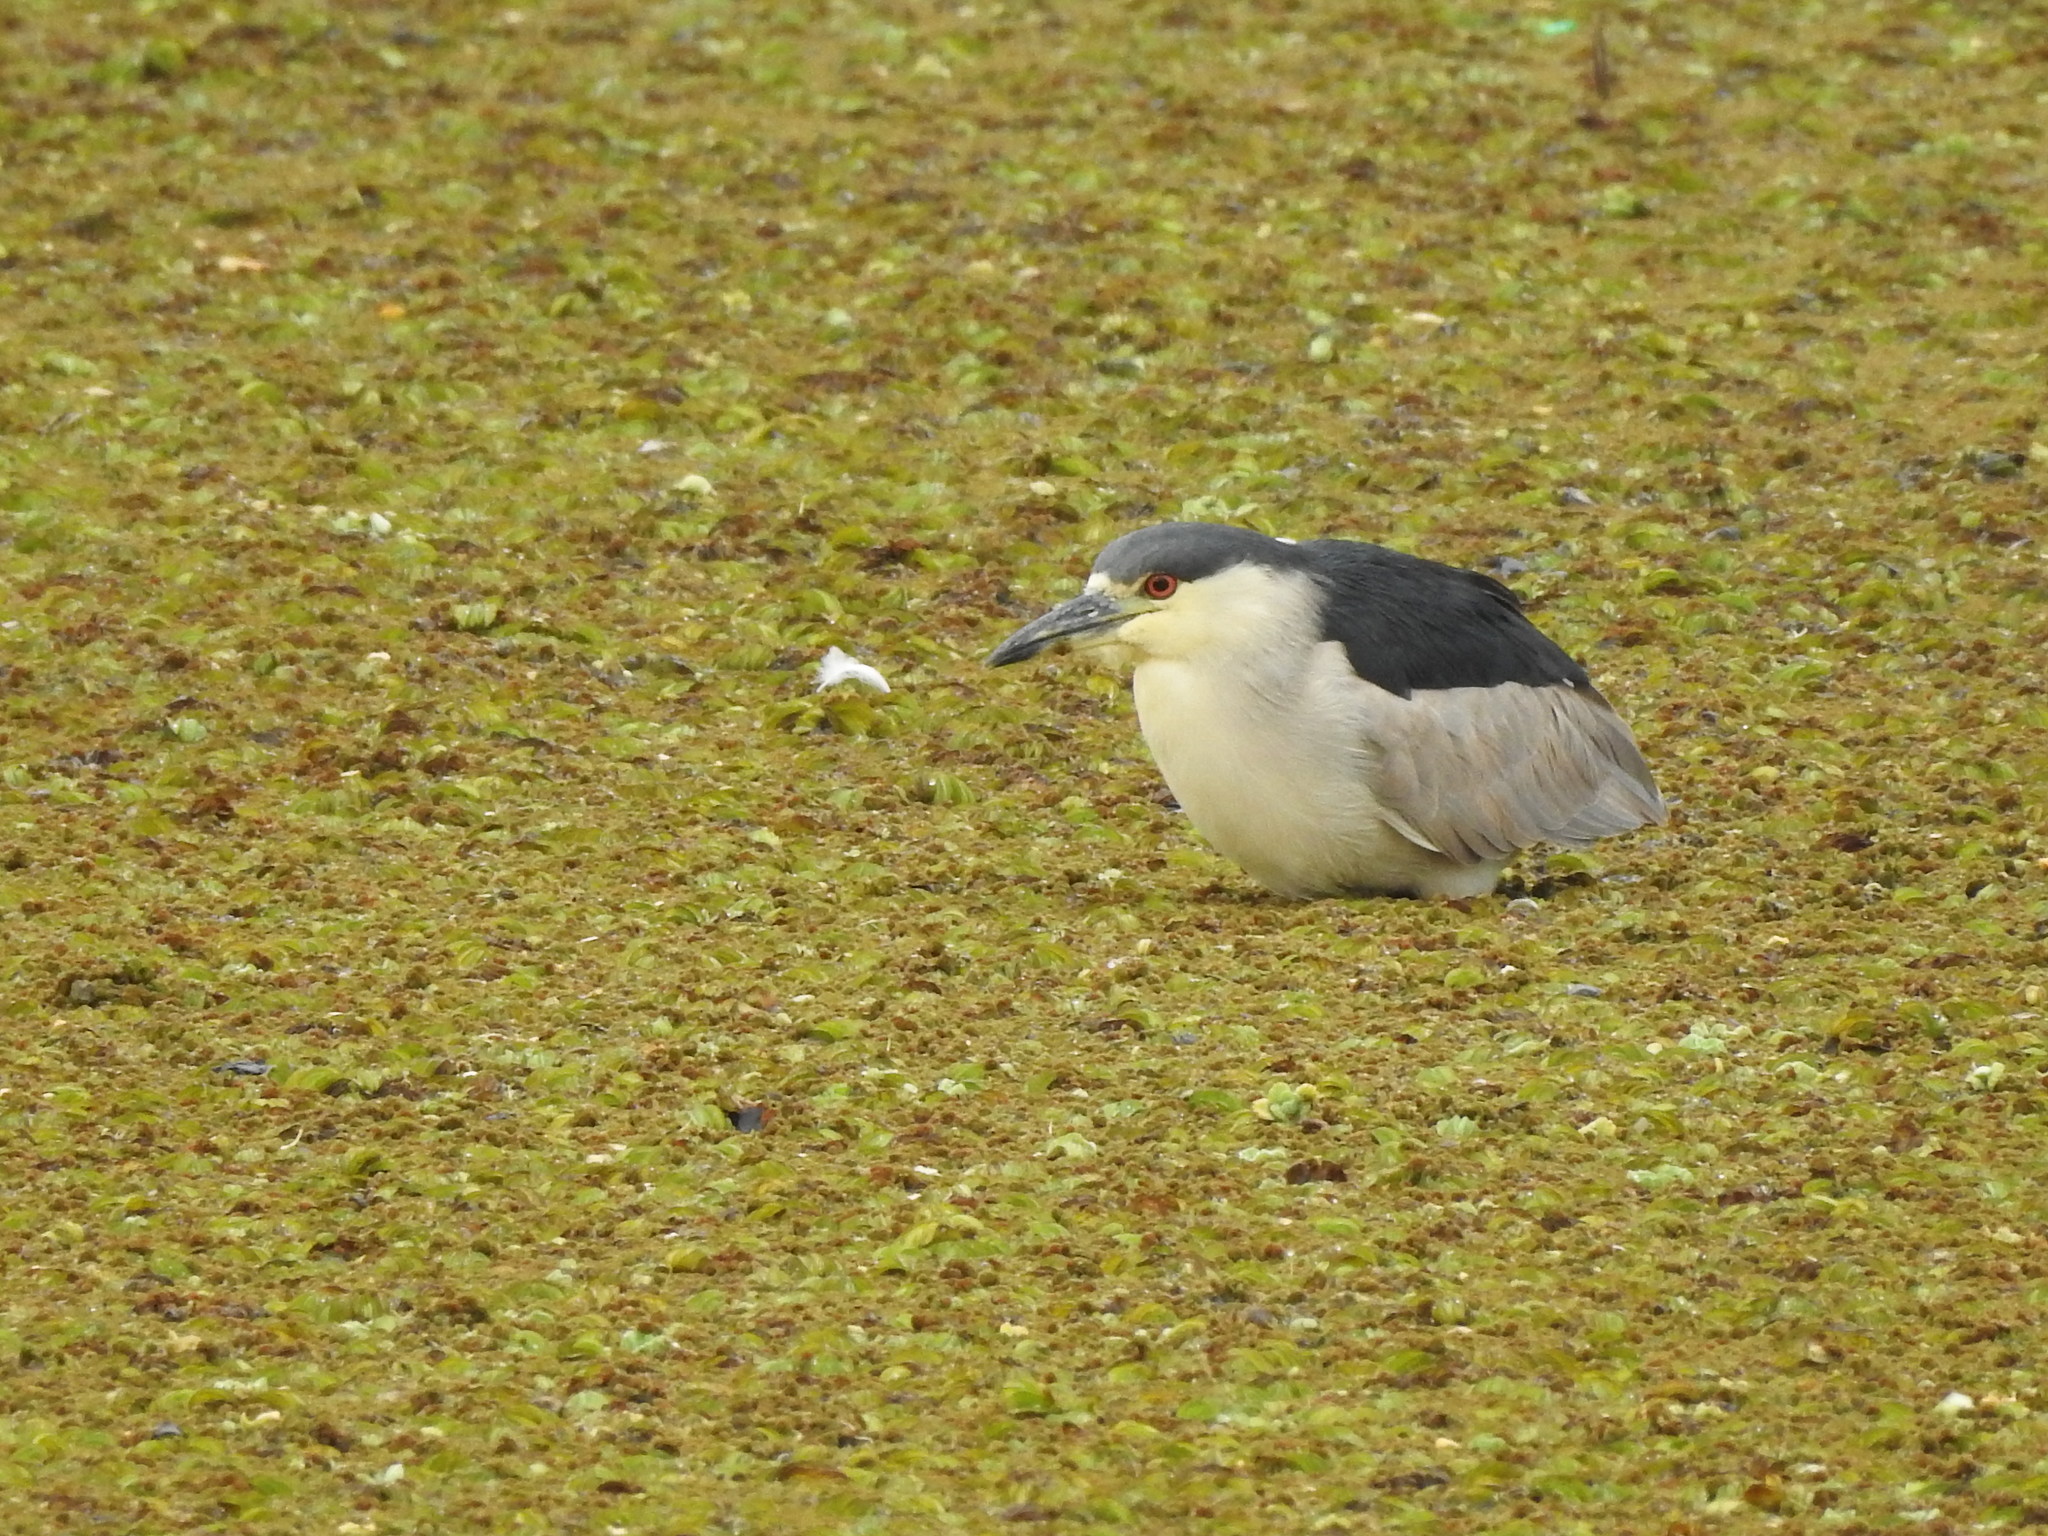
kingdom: Animalia
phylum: Chordata
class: Aves
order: Pelecaniformes
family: Ardeidae
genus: Nycticorax
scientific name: Nycticorax nycticorax
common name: Black-crowned night heron
